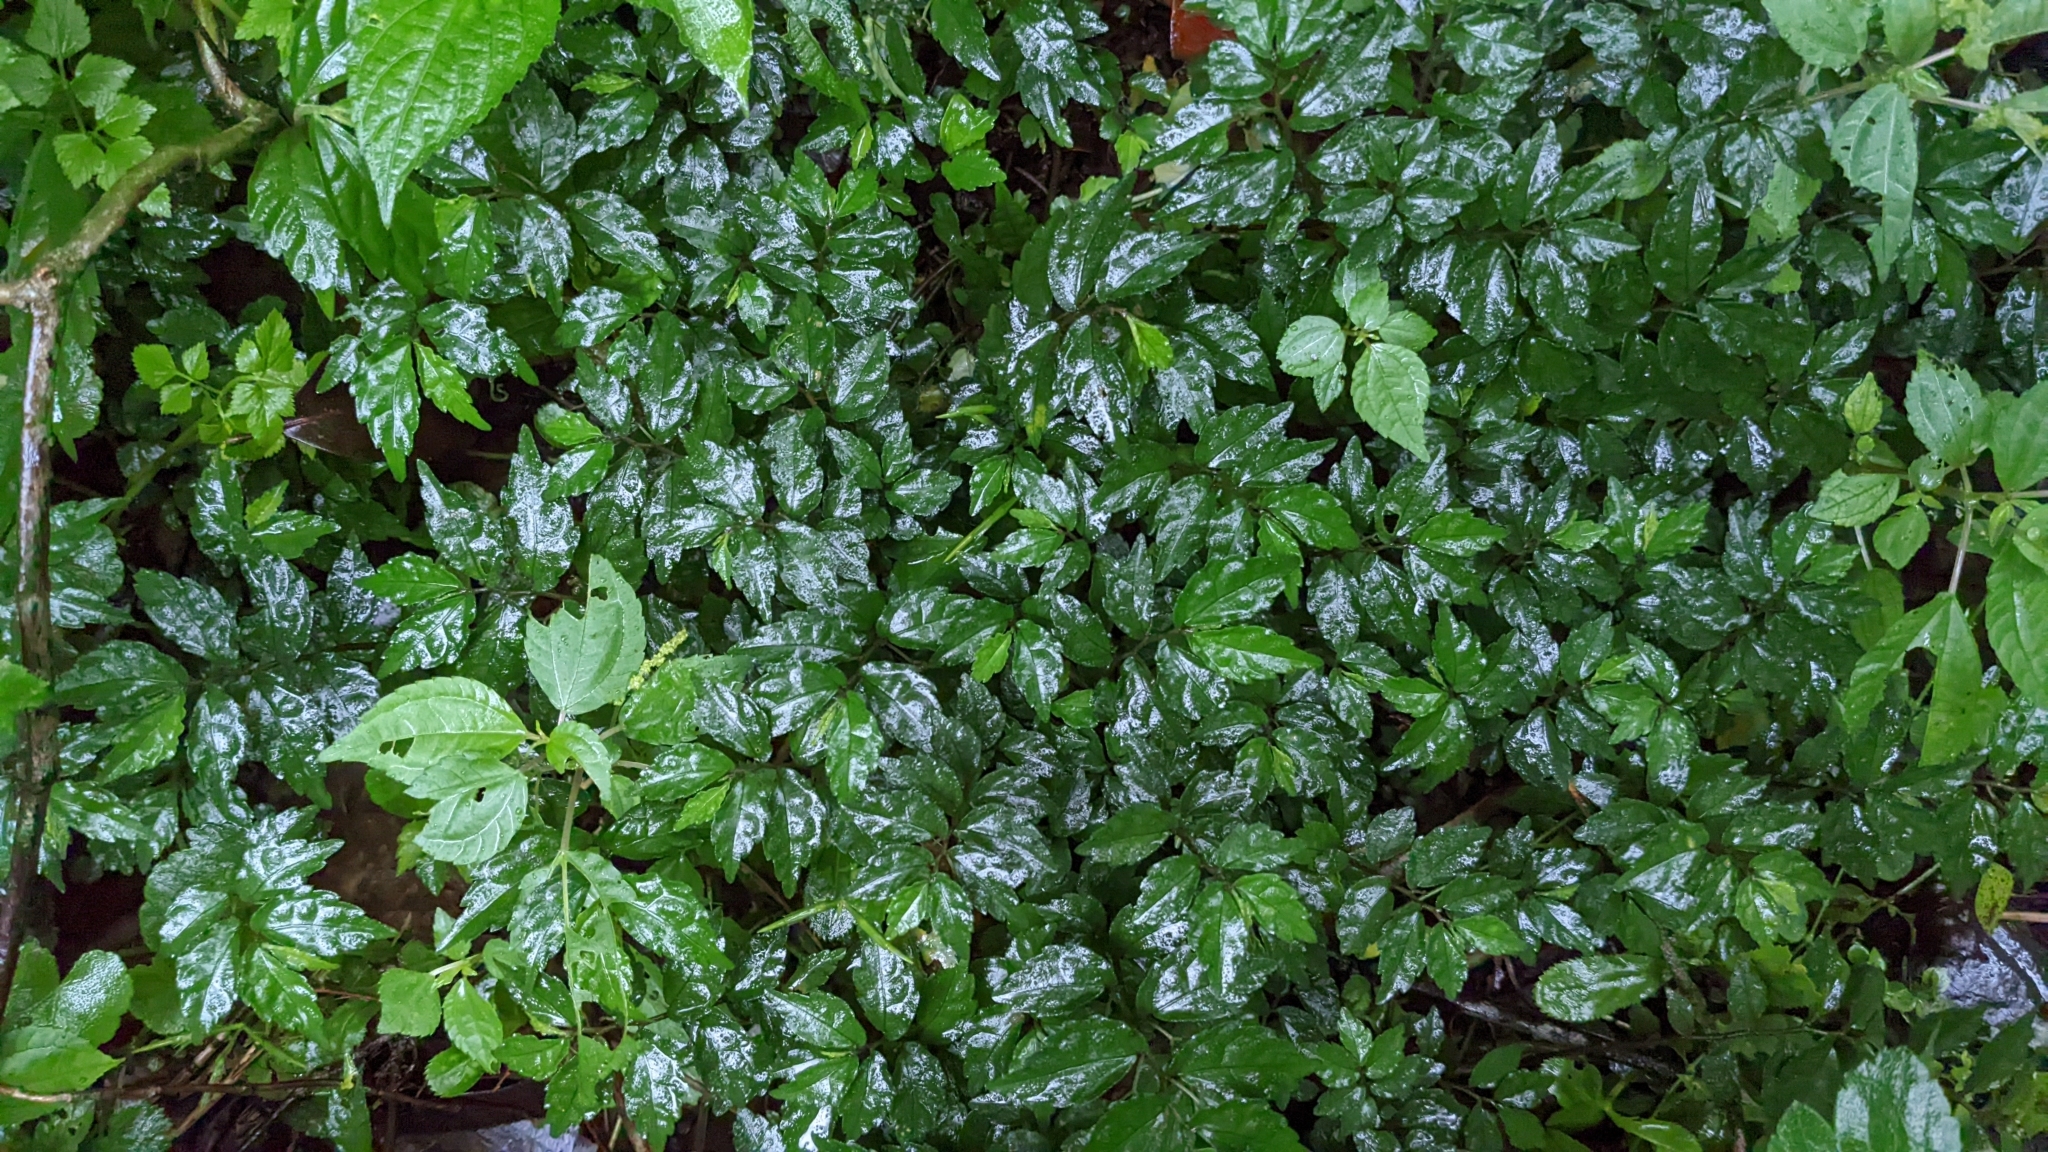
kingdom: Plantae
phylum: Tracheophyta
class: Magnoliopsida
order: Rosales
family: Urticaceae
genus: Elatostema
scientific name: Elatostema radicans
